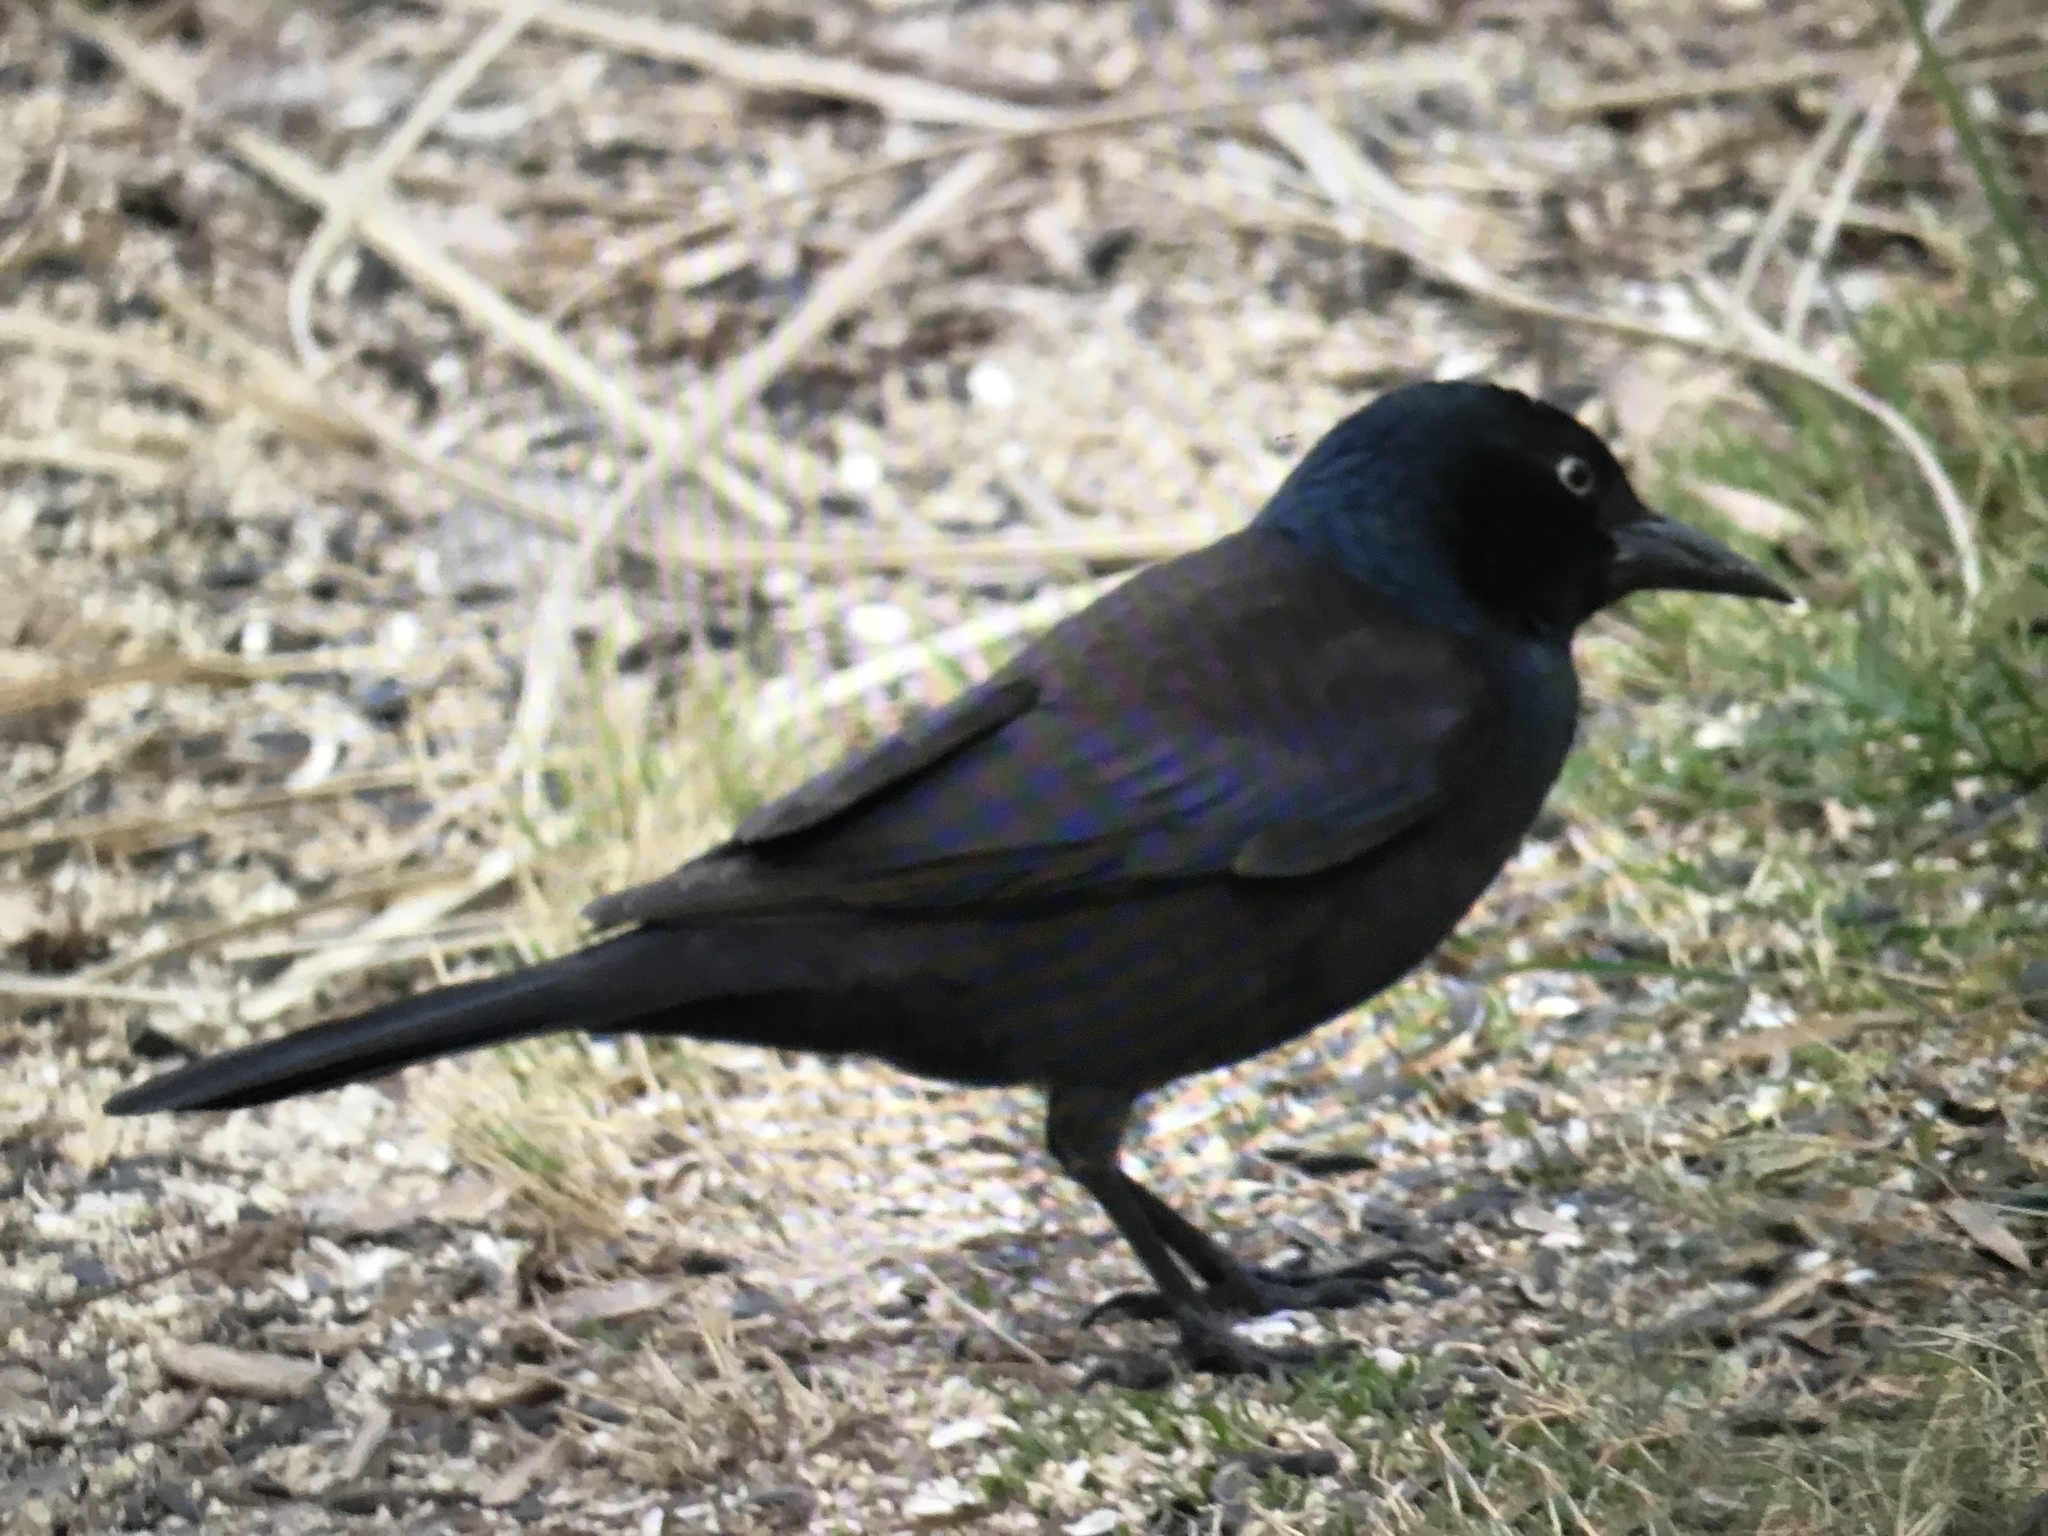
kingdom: Animalia
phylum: Chordata
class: Aves
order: Passeriformes
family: Icteridae
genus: Quiscalus
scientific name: Quiscalus quiscula
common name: Common grackle
